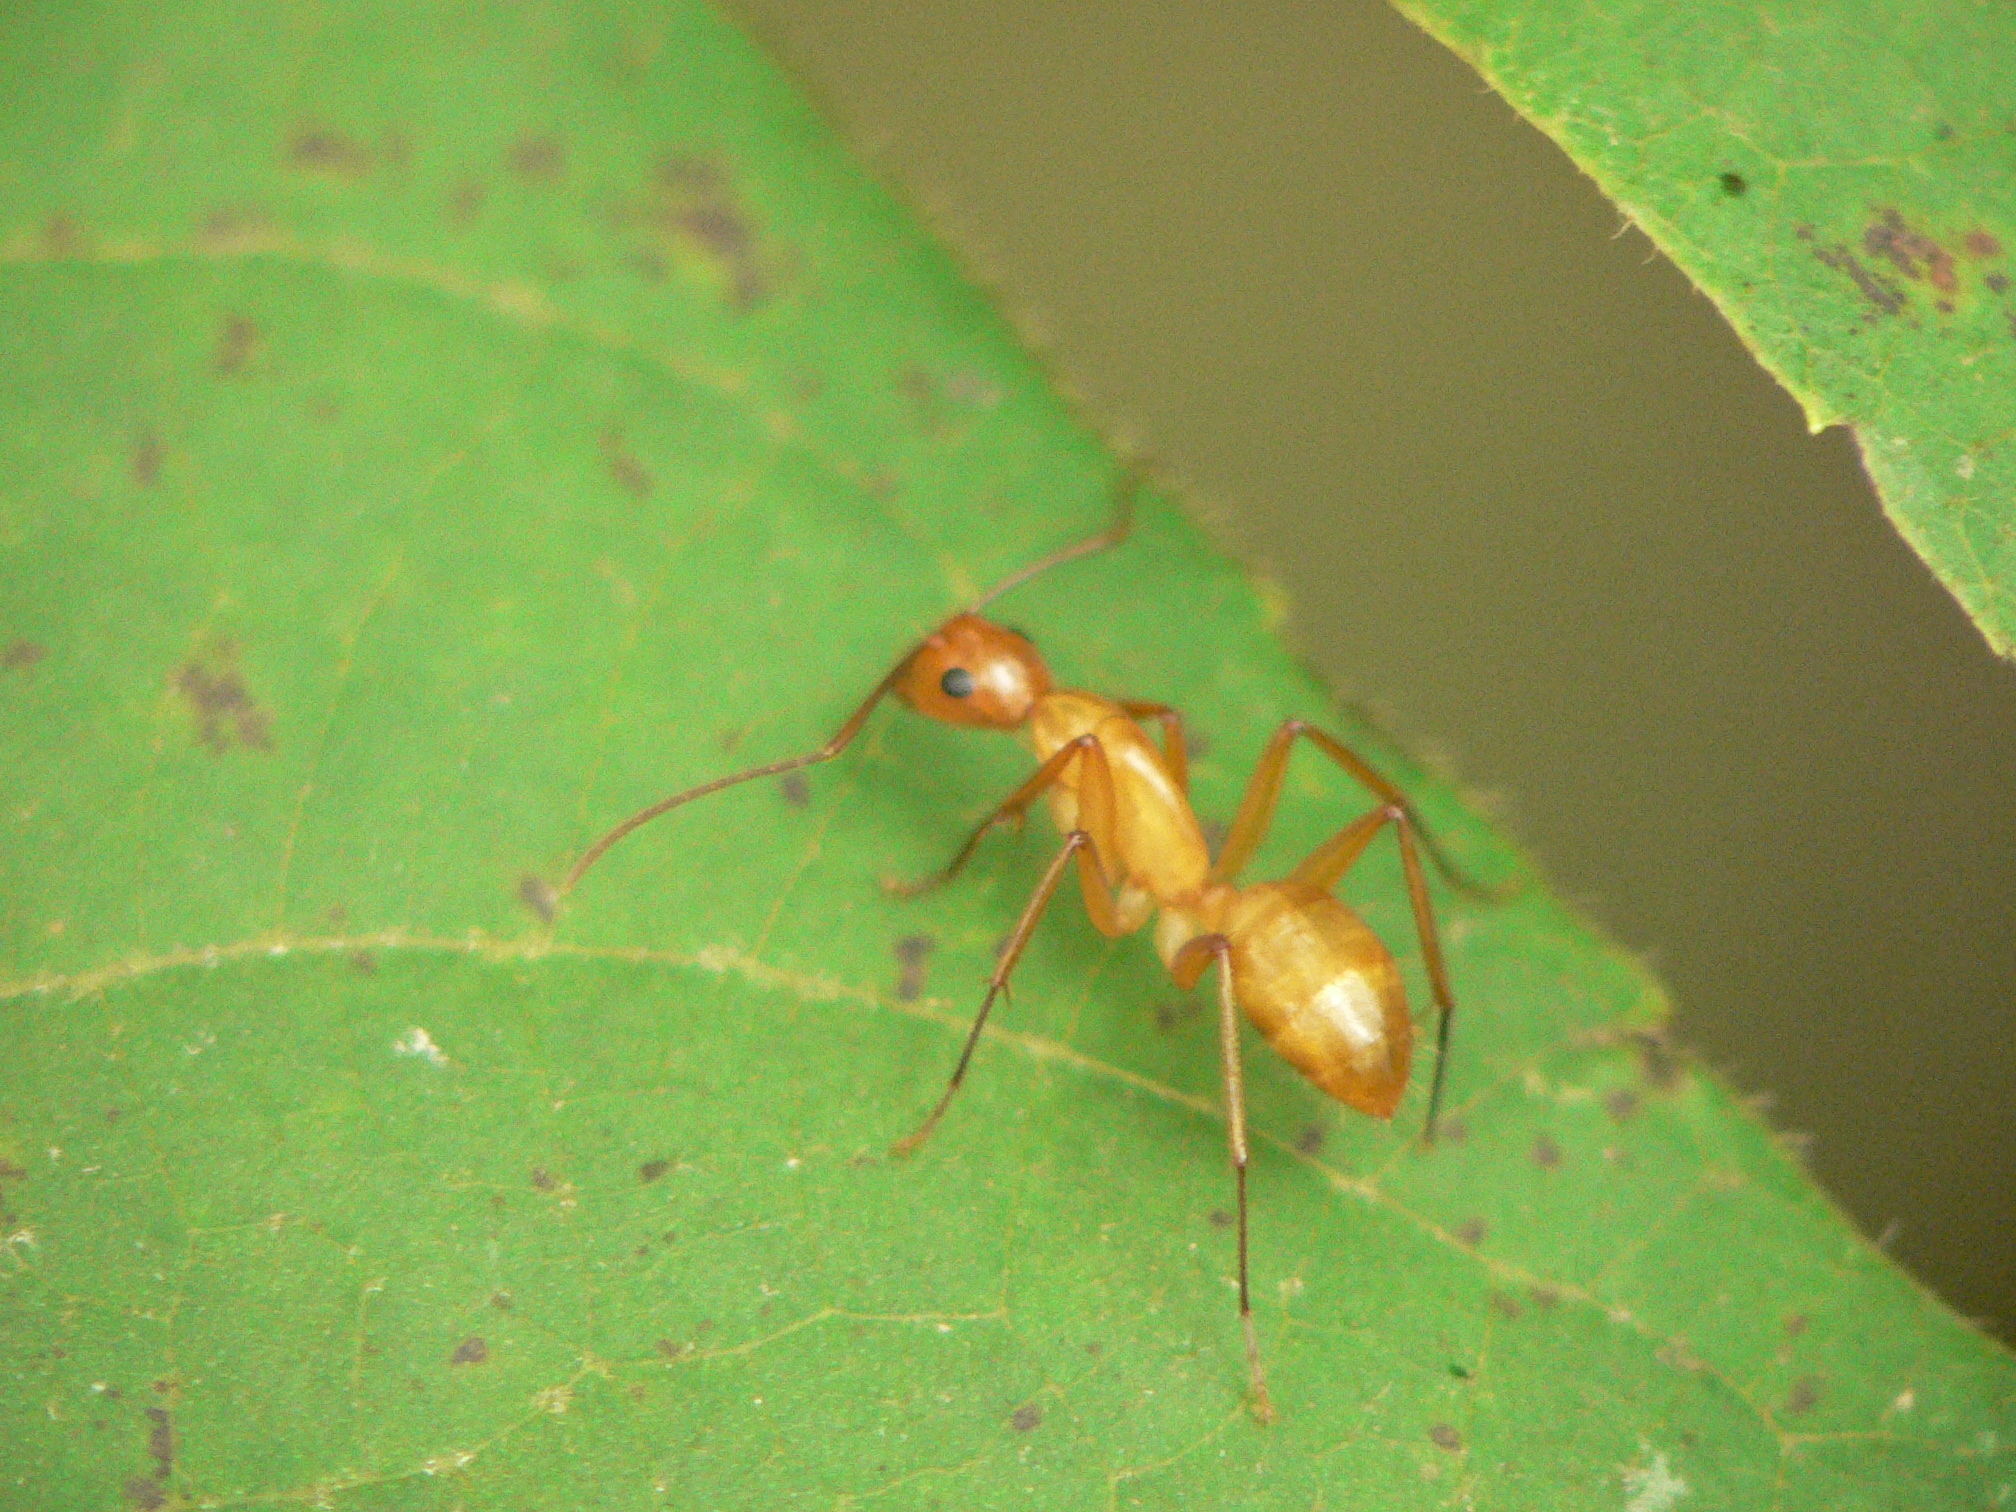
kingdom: Animalia
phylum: Arthropoda
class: Insecta
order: Hymenoptera
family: Formicidae
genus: Camponotus
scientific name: Camponotus castaneus
